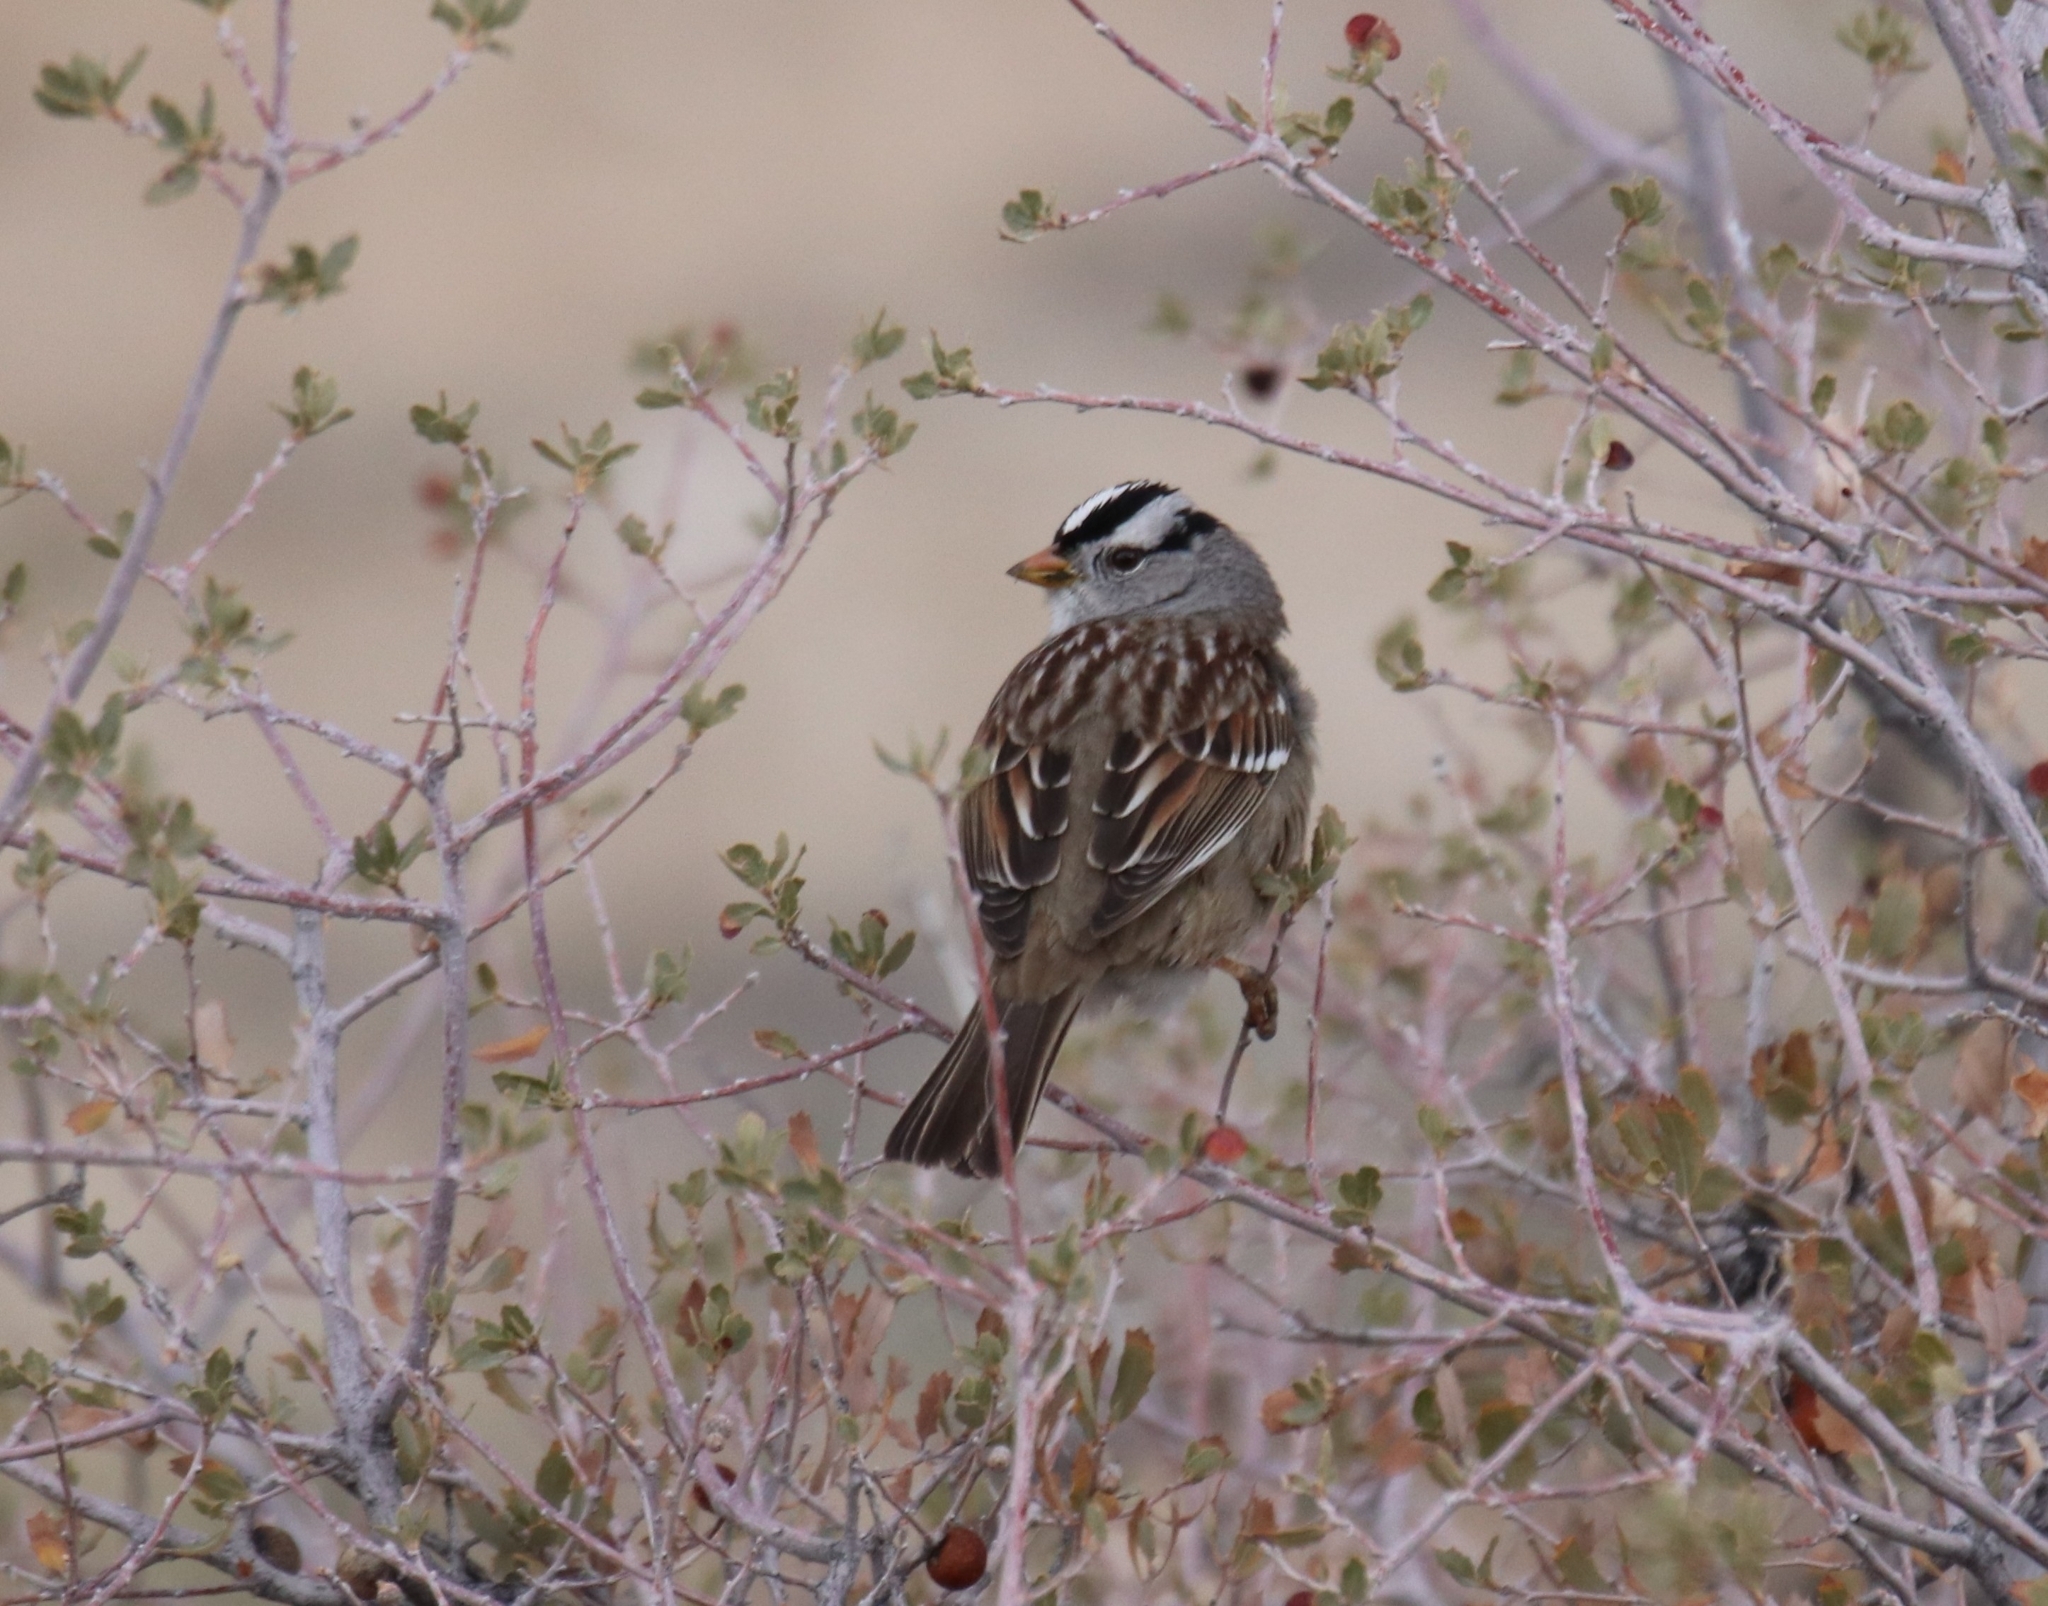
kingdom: Animalia
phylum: Chordata
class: Aves
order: Passeriformes
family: Passerellidae
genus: Zonotrichia
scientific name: Zonotrichia leucophrys
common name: White-crowned sparrow
